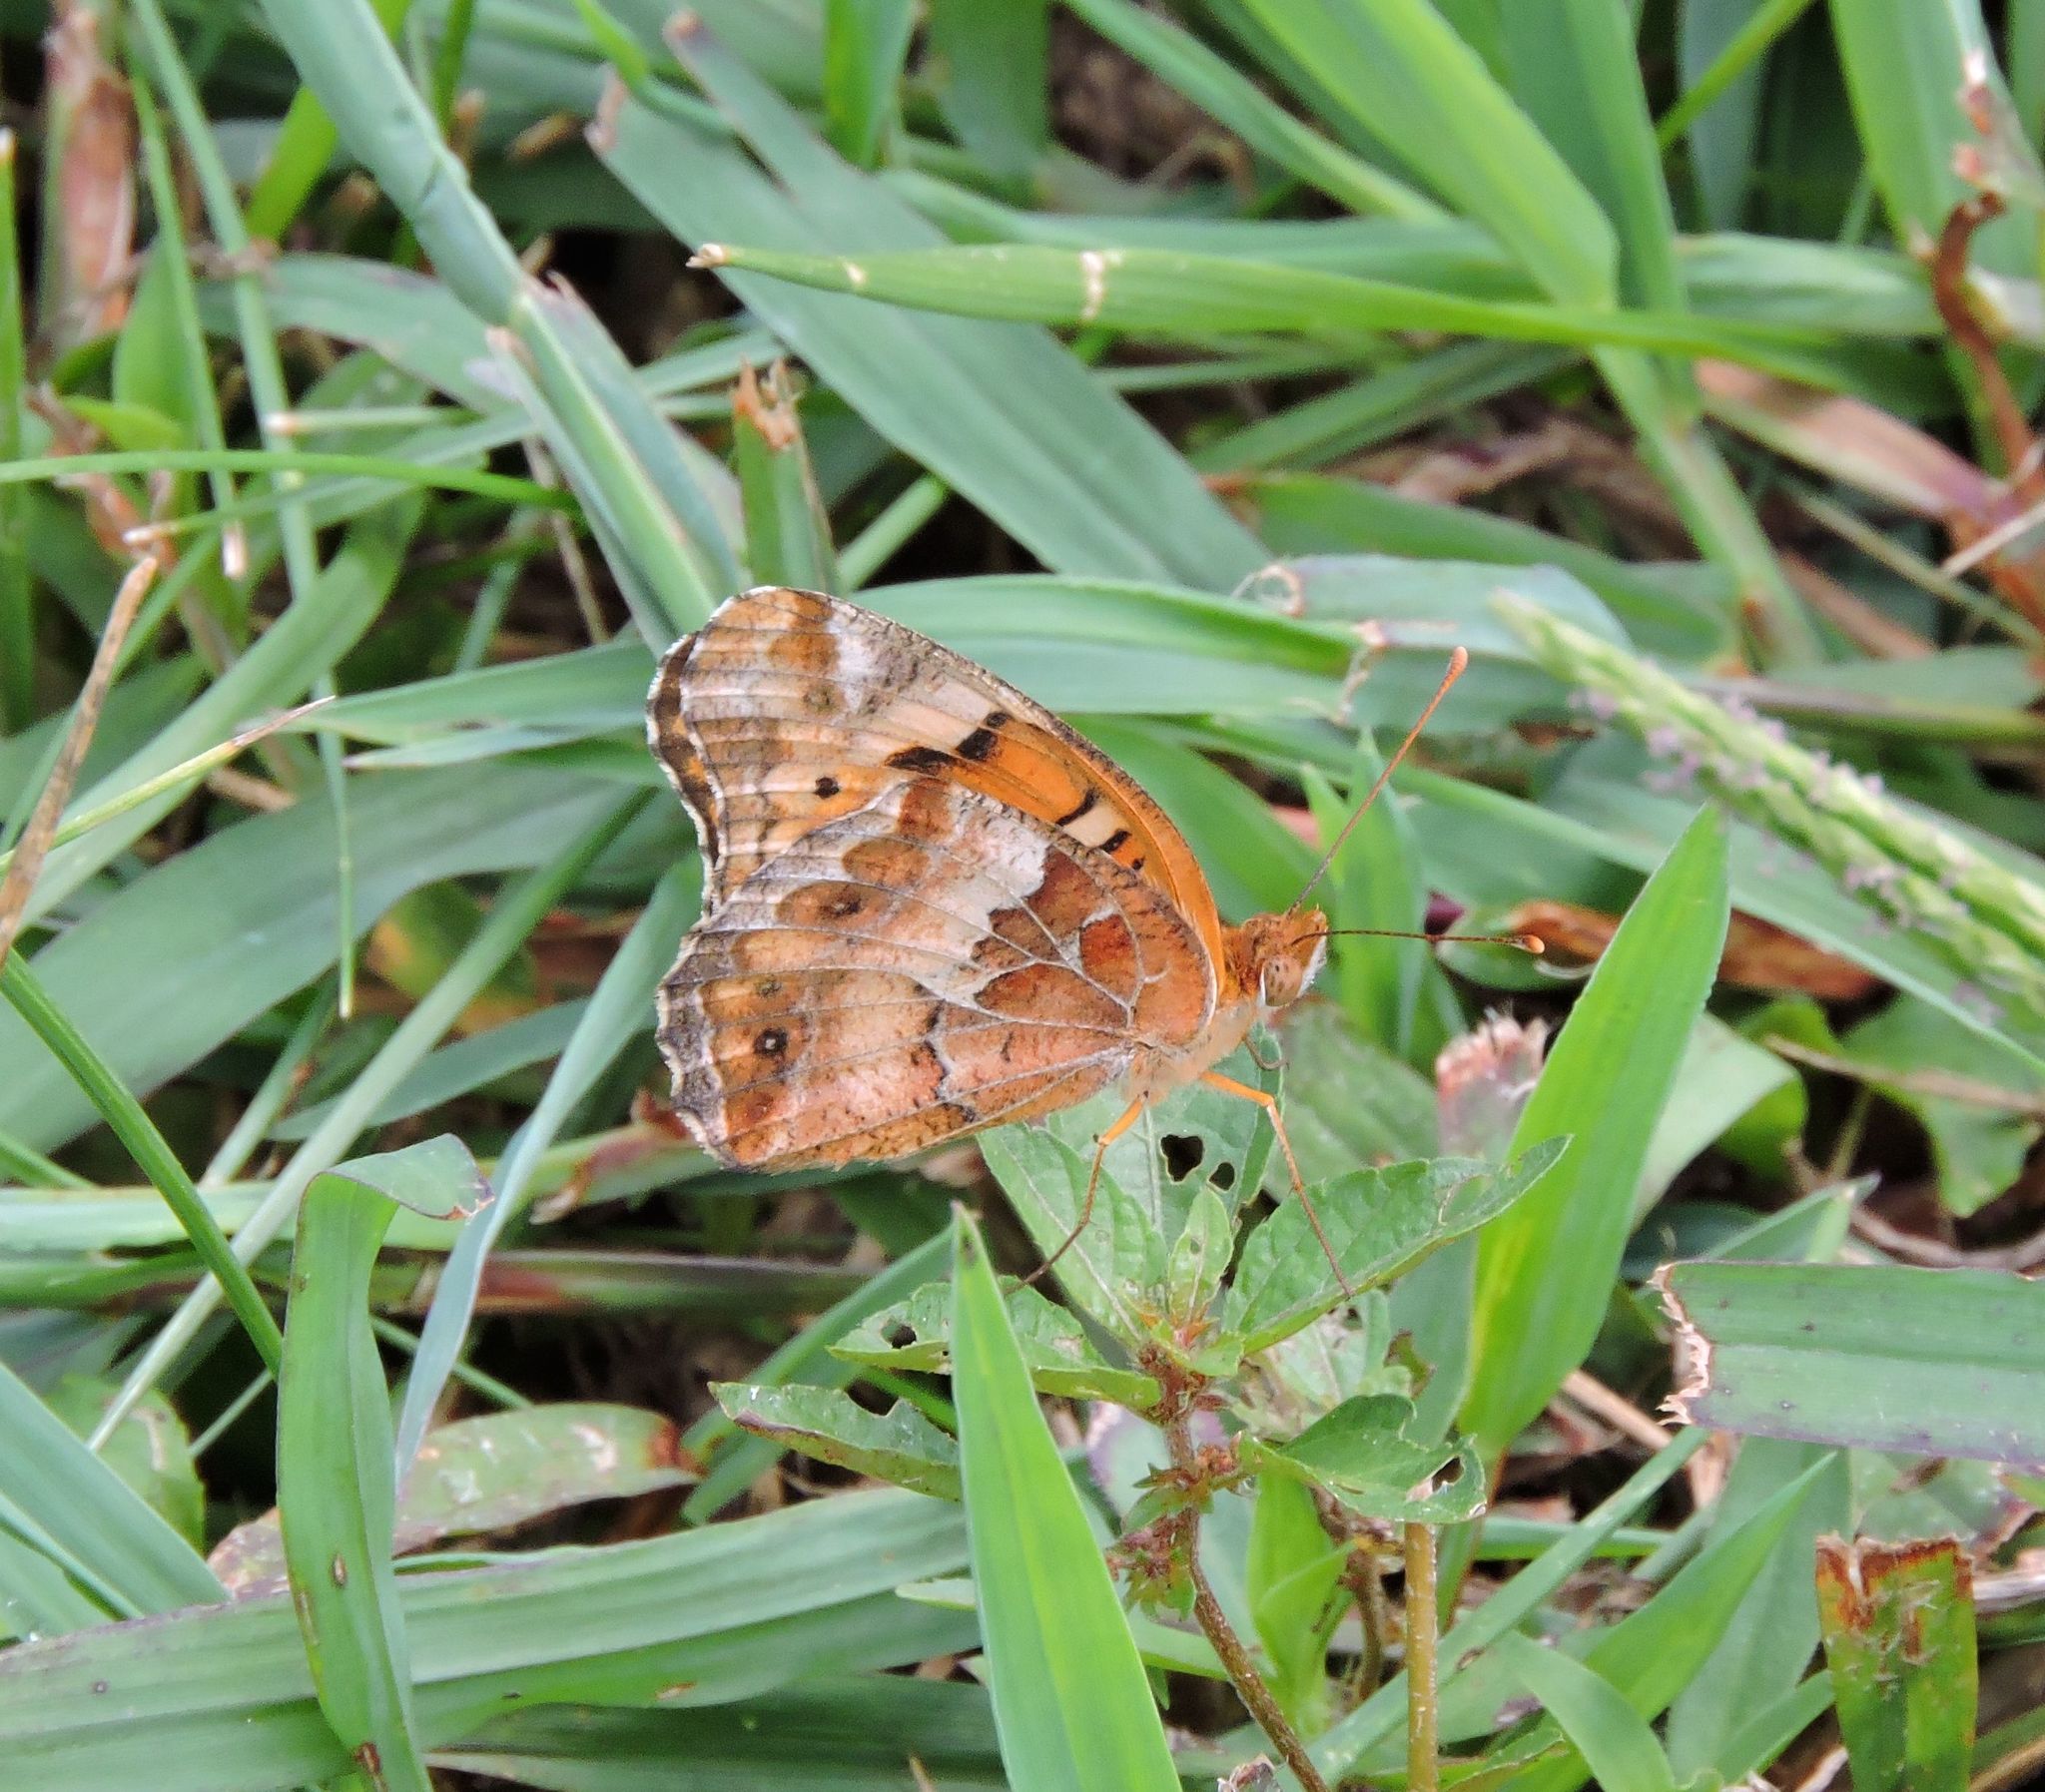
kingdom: Animalia
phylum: Arthropoda
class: Insecta
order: Lepidoptera
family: Nymphalidae
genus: Euptoieta
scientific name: Euptoieta claudia
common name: Variegated fritillary
